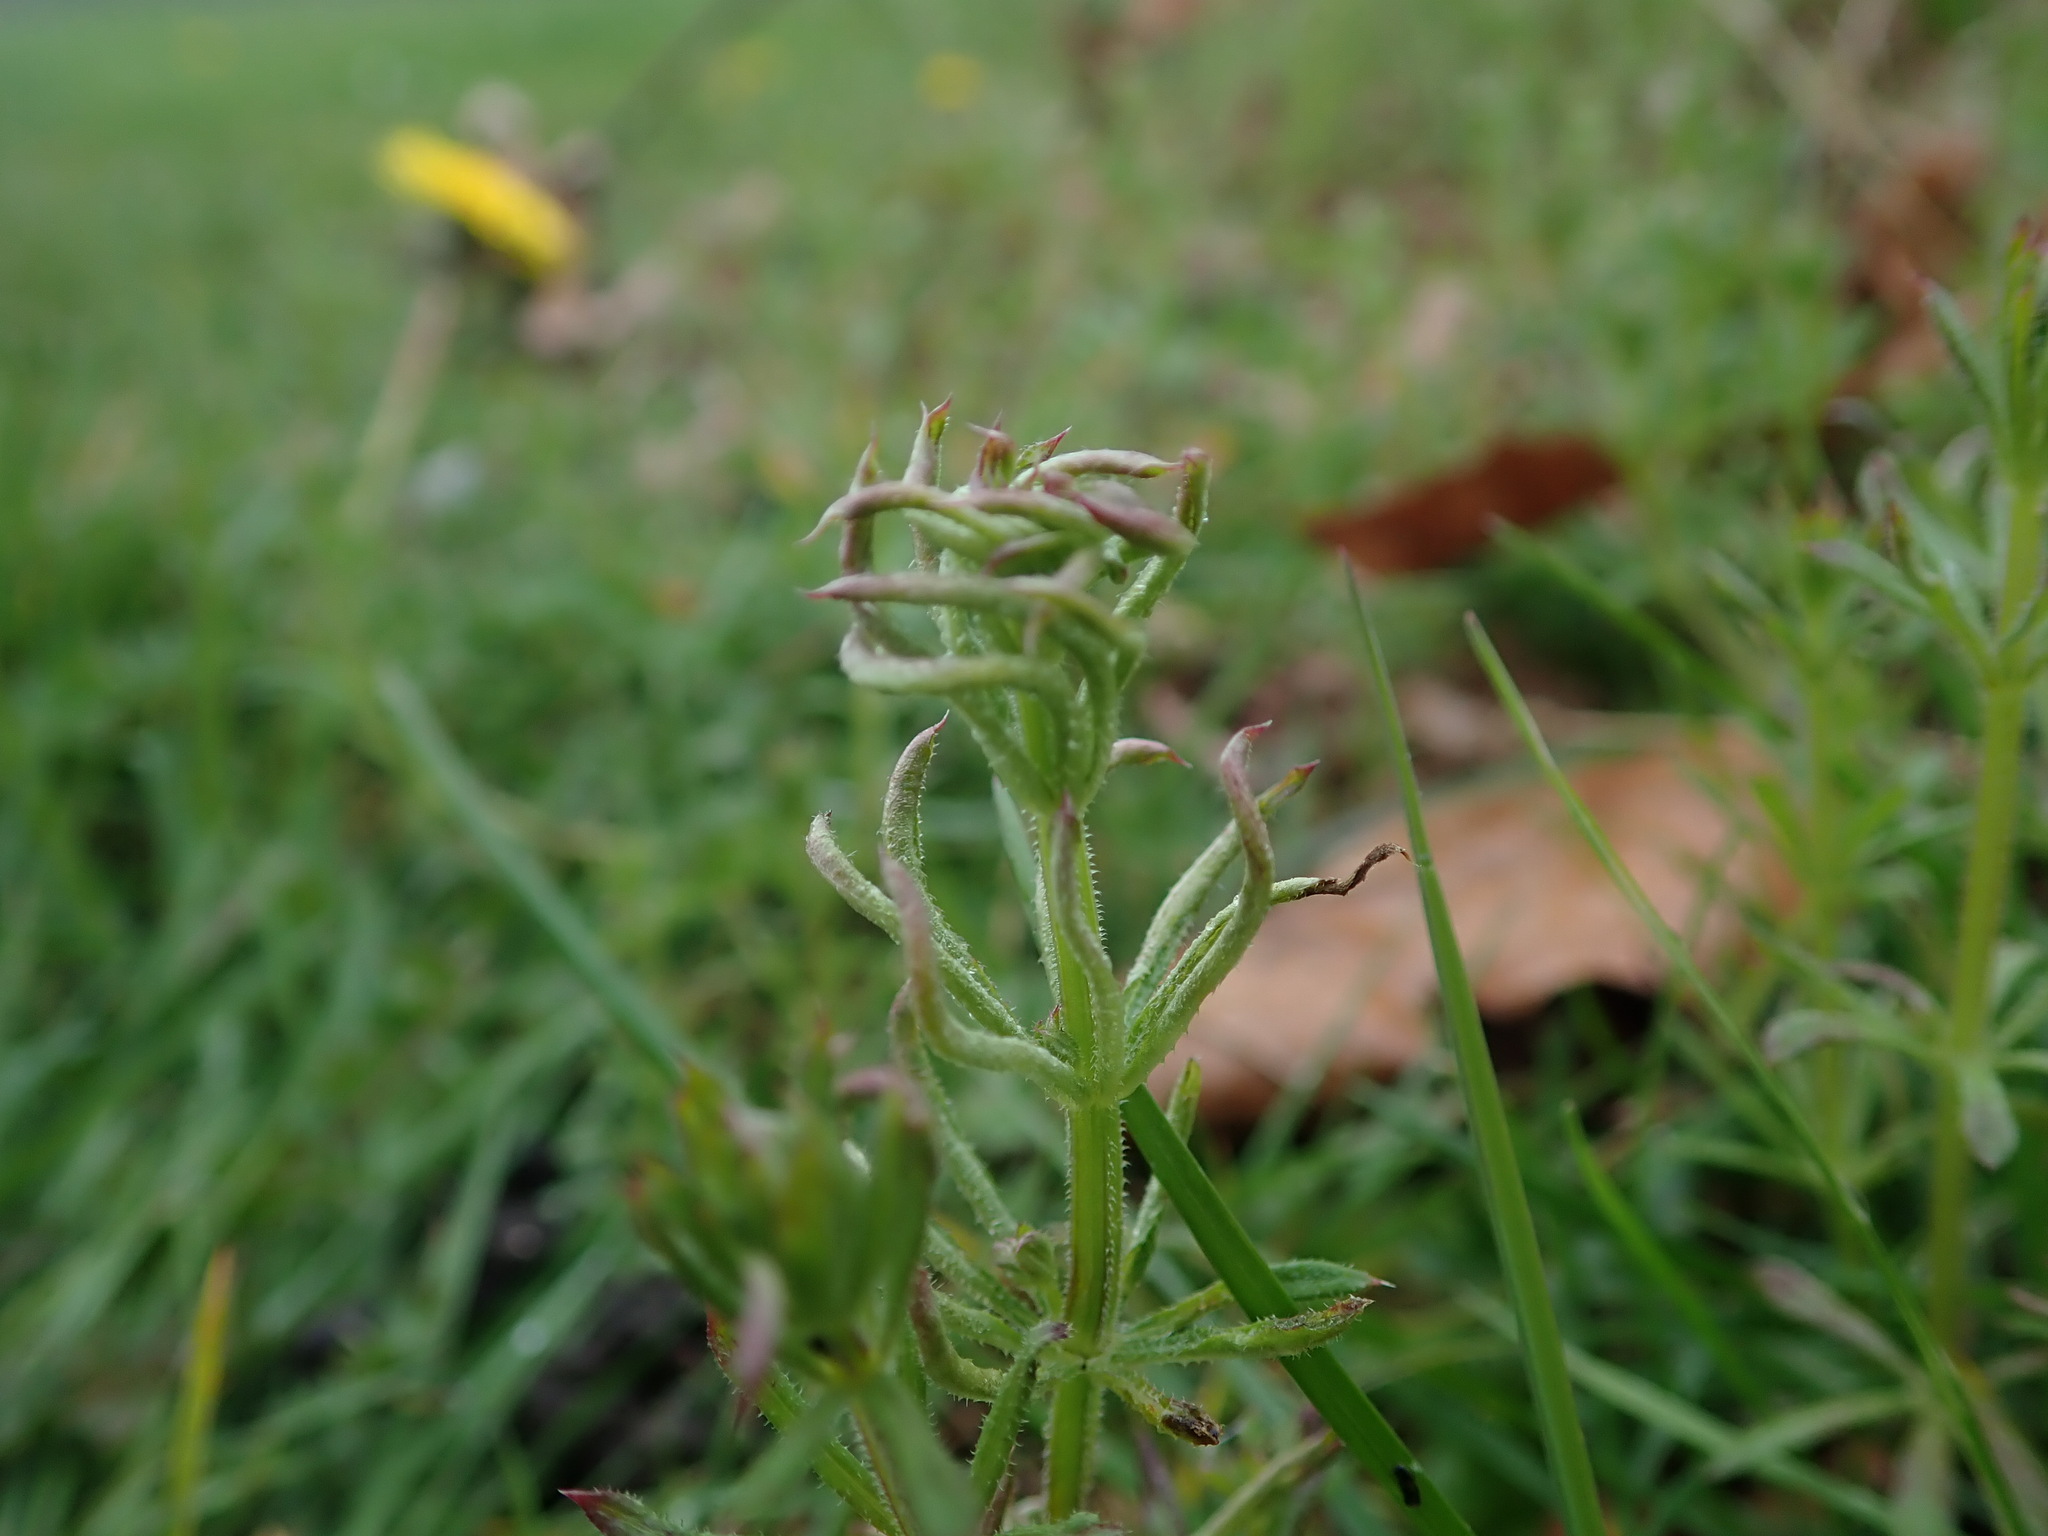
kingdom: Animalia
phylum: Arthropoda
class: Arachnida
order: Trombidiformes
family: Eriophyidae
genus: Cecidophyes
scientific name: Cecidophyes rouhollahi
